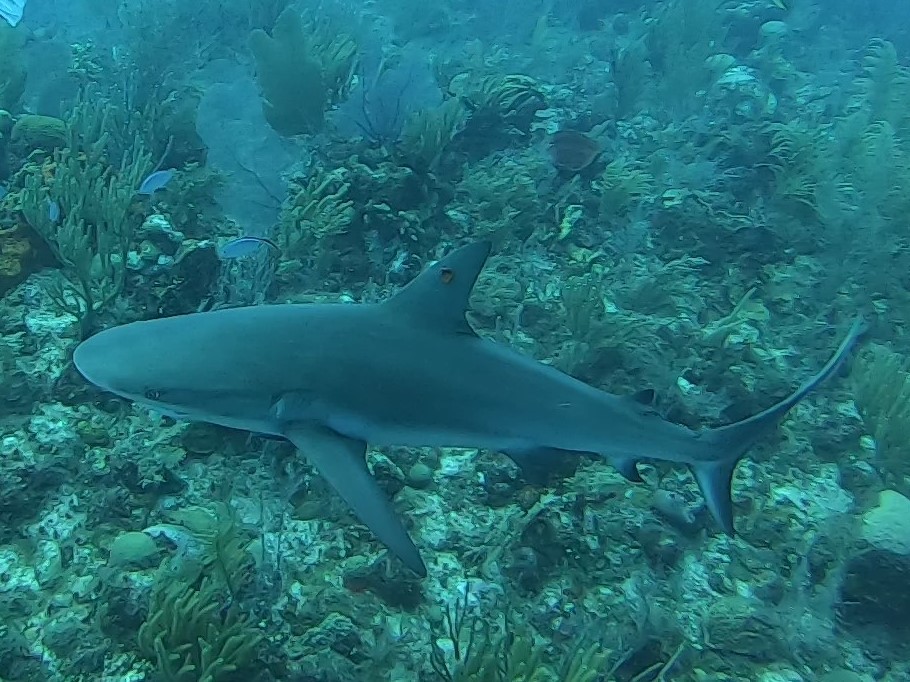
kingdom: Animalia
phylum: Chordata
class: Elasmobranchii
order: Carcharhiniformes
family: Carcharhinidae
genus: Carcharhinus
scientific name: Carcharhinus perezii
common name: Reef shark
